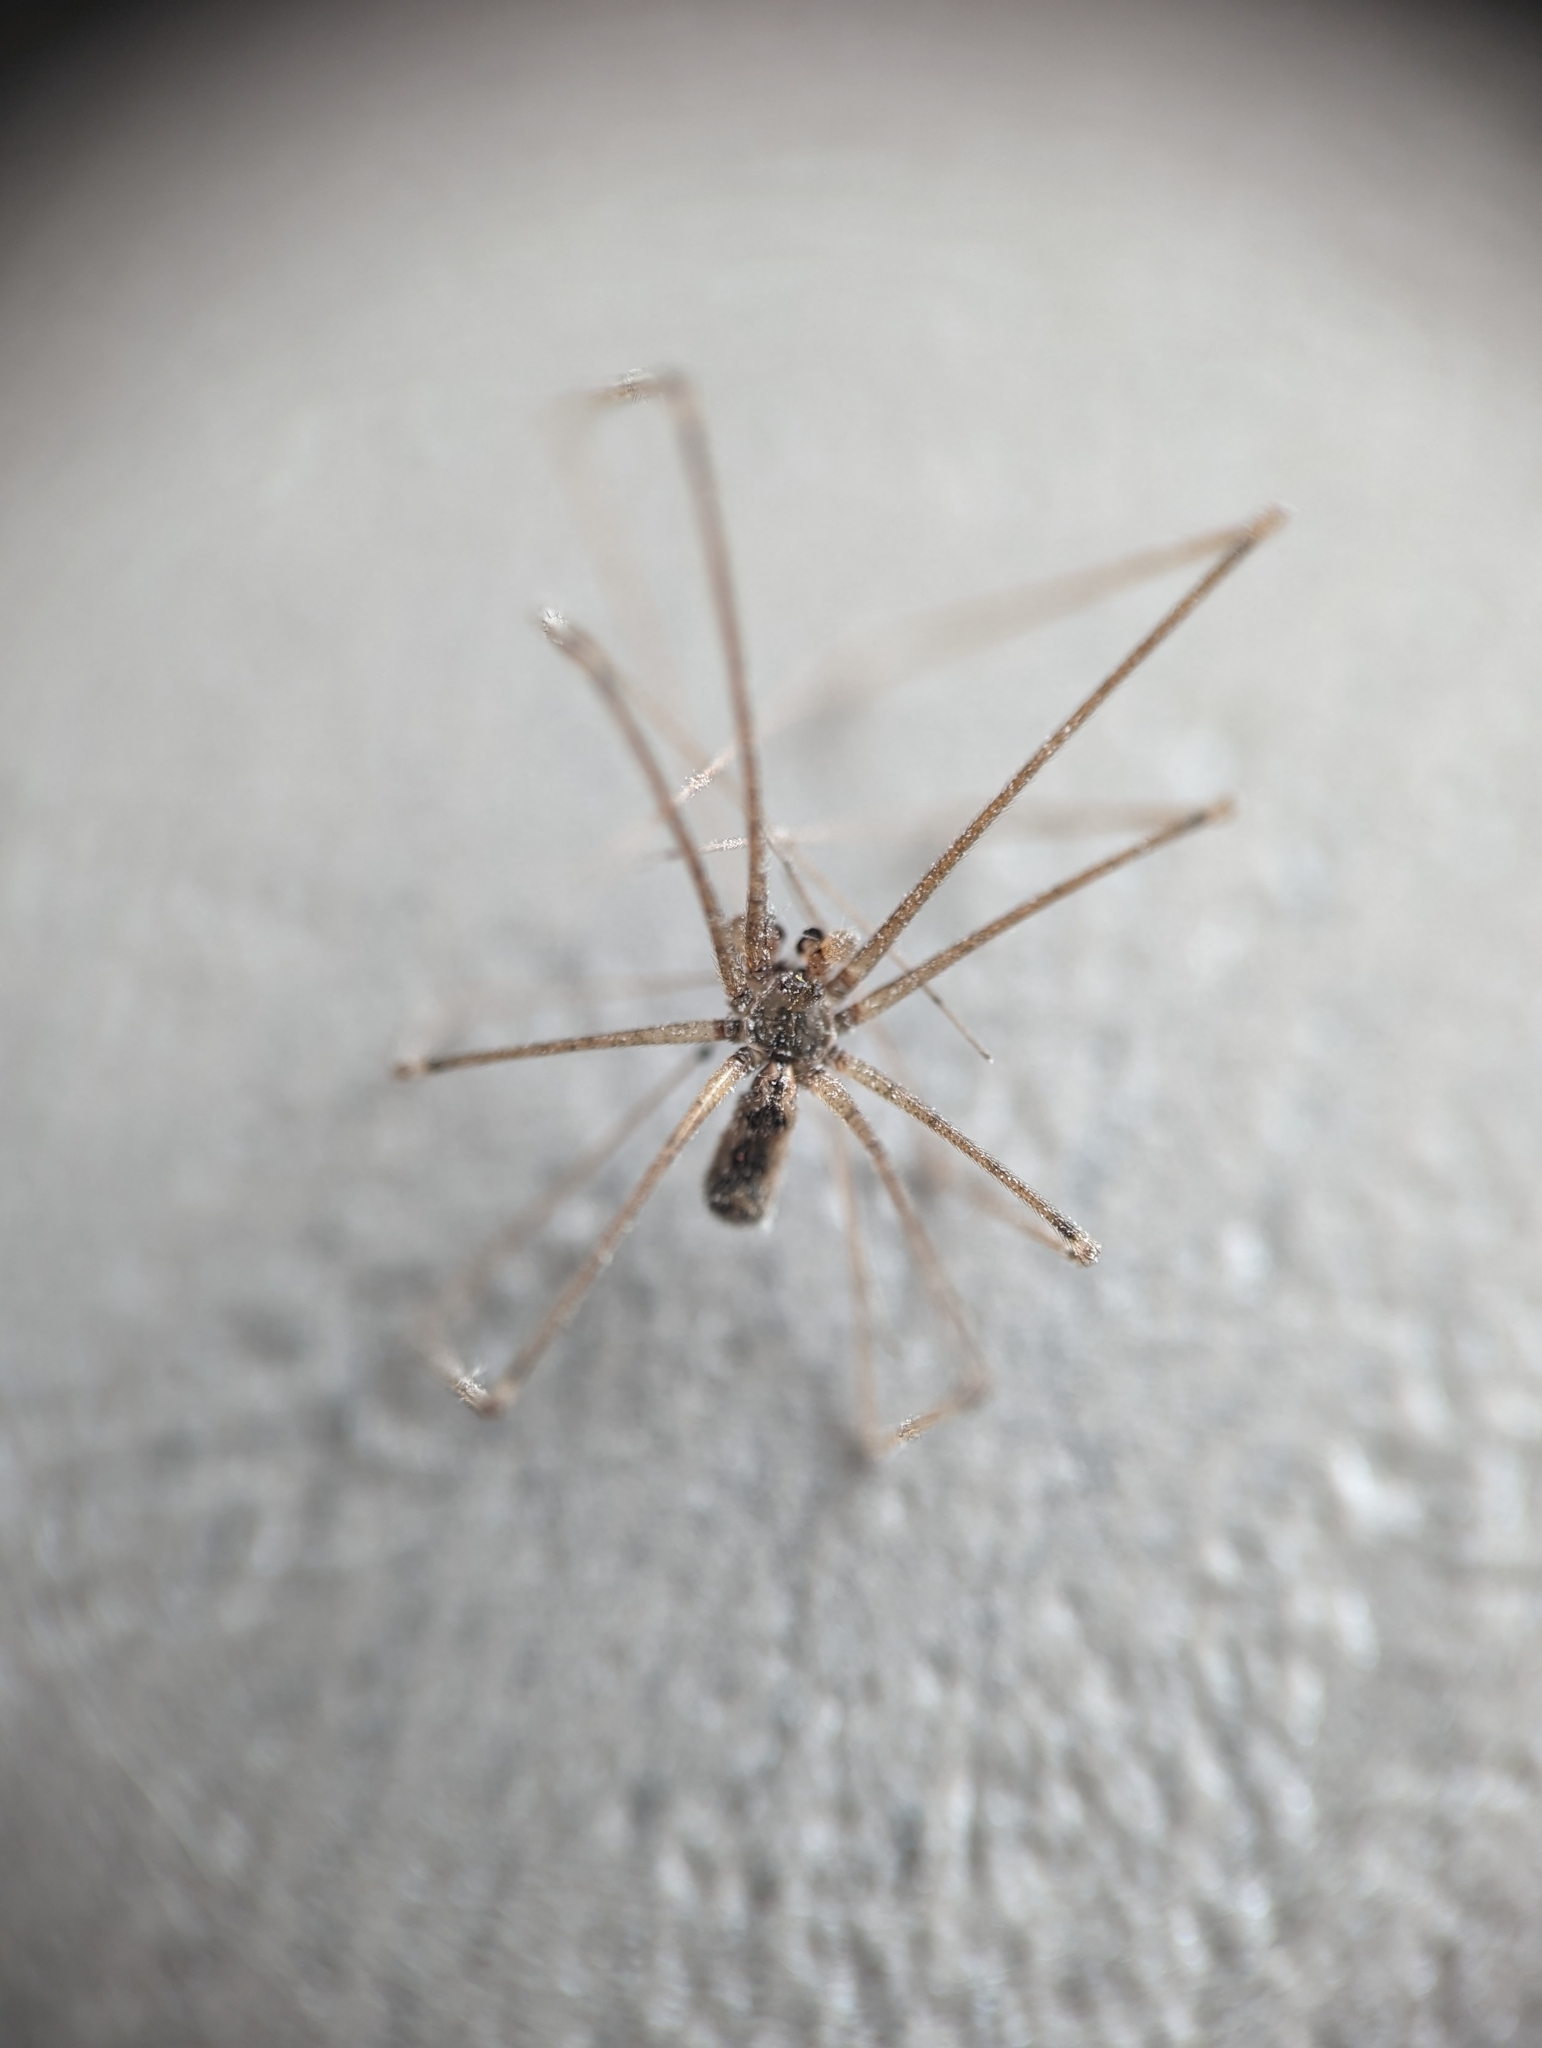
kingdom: Animalia
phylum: Arthropoda
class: Arachnida
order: Araneae
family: Pholcidae
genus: Pholcus
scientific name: Pholcus crypticolens
